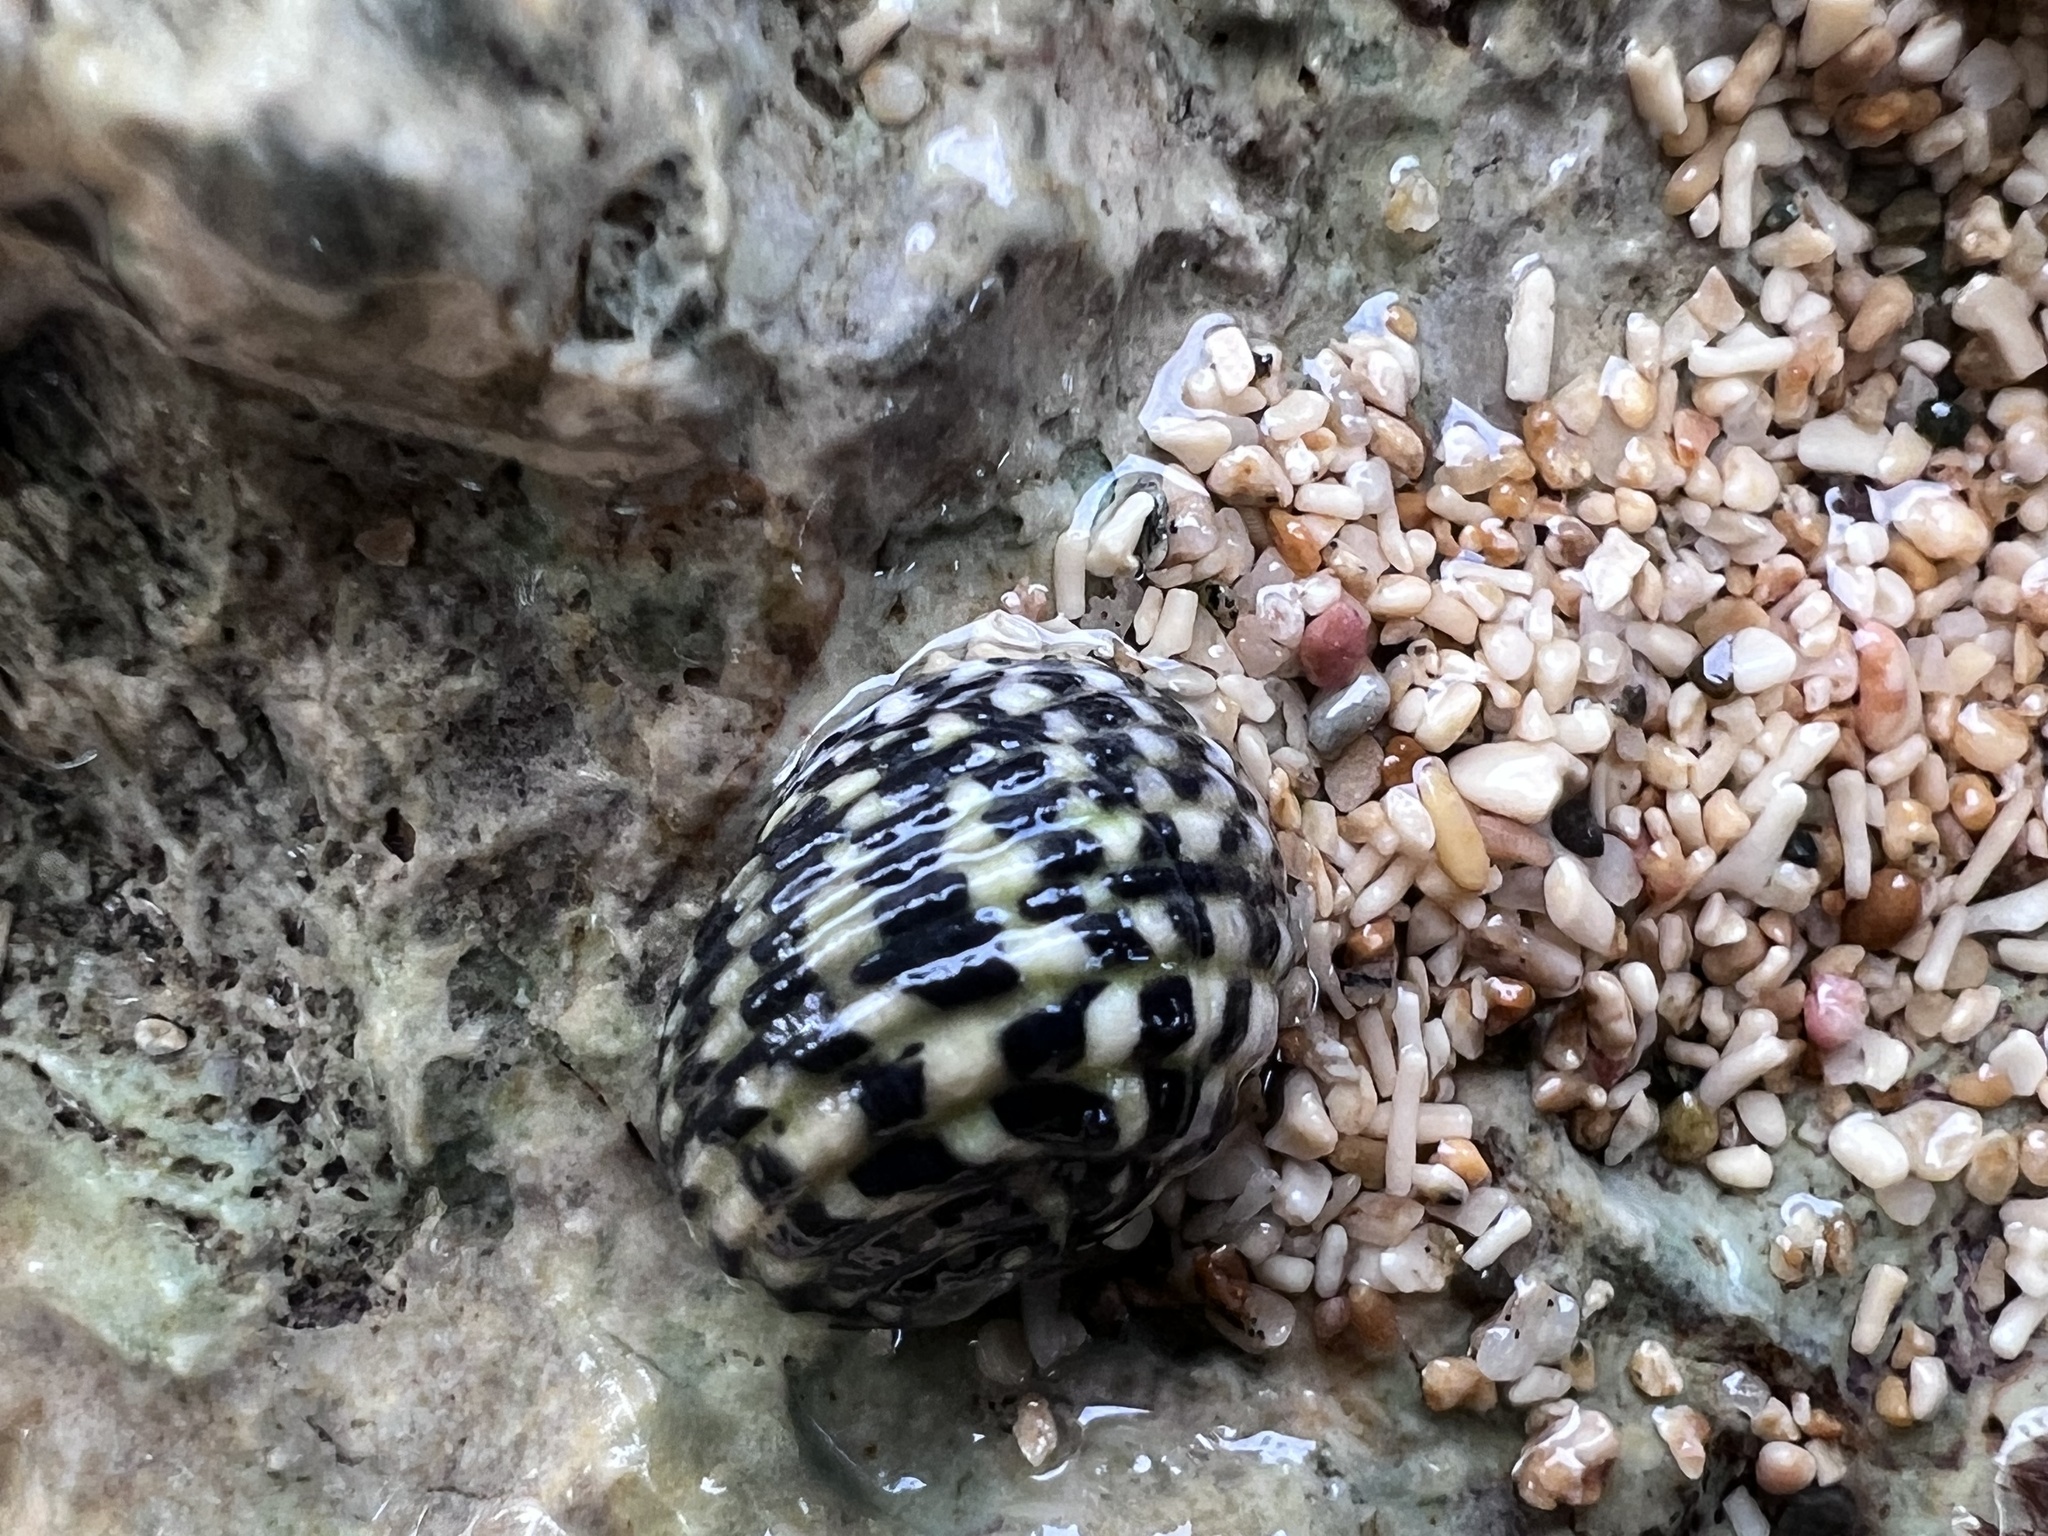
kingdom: Animalia
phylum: Mollusca
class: Gastropoda
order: Cycloneritida
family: Neritidae
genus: Nerita
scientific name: Nerita tessellata
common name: Checkered nerite
